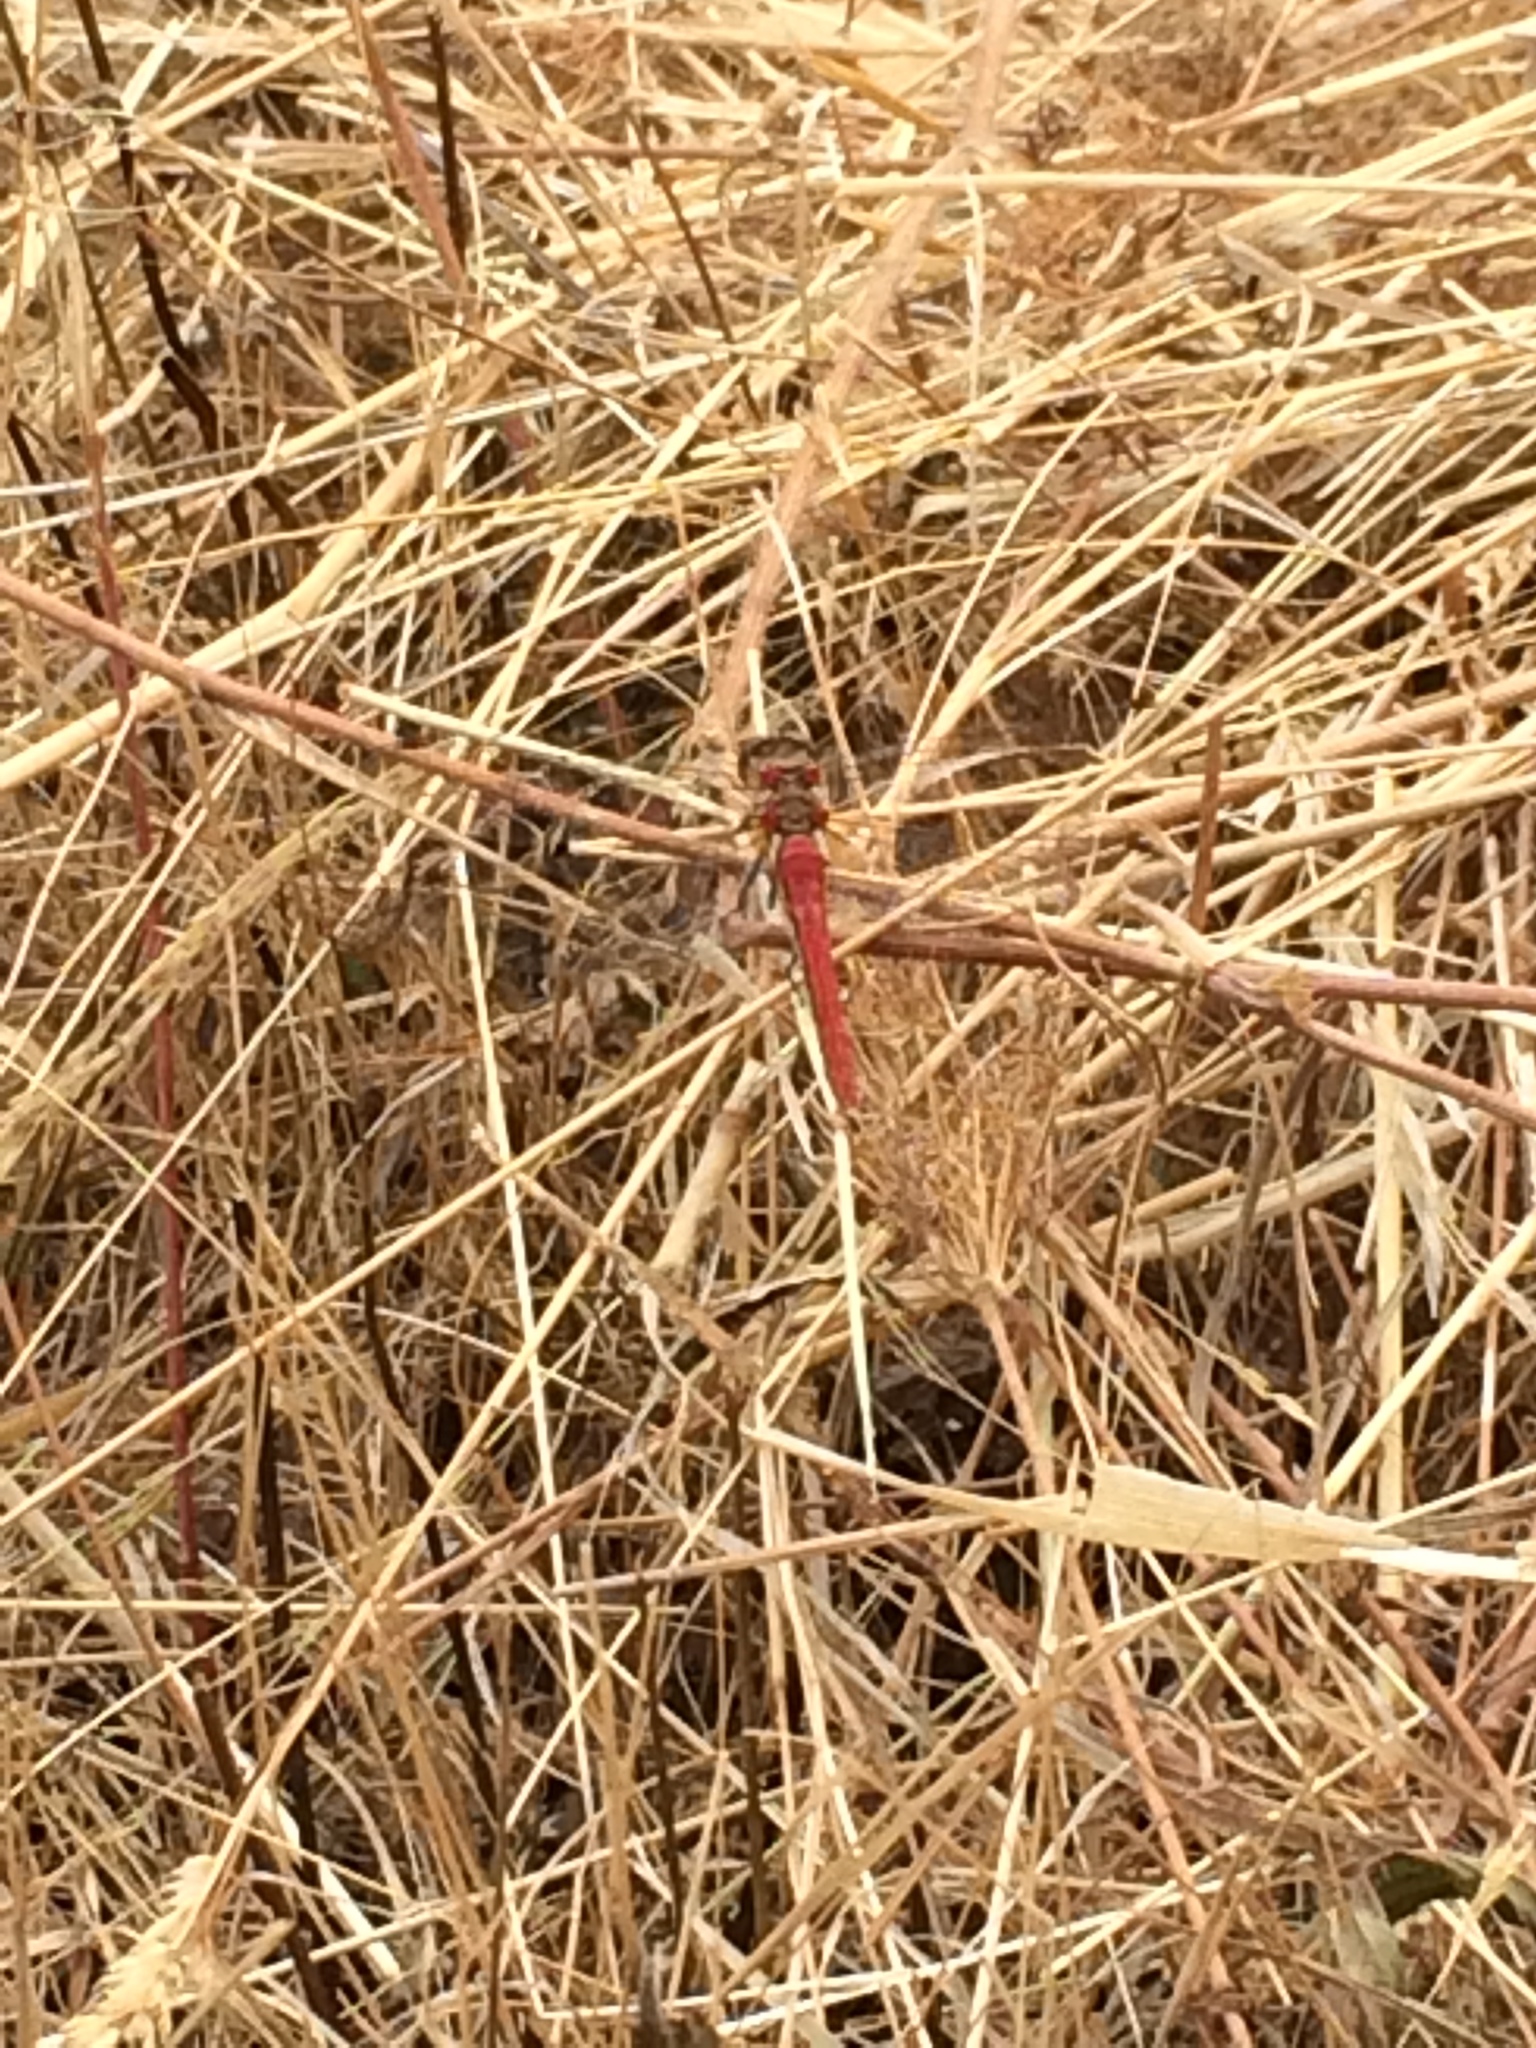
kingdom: Animalia
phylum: Arthropoda
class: Insecta
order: Odonata
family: Libellulidae
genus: Sympetrum
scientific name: Sympetrum pallipes
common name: Striped meadowhawk
